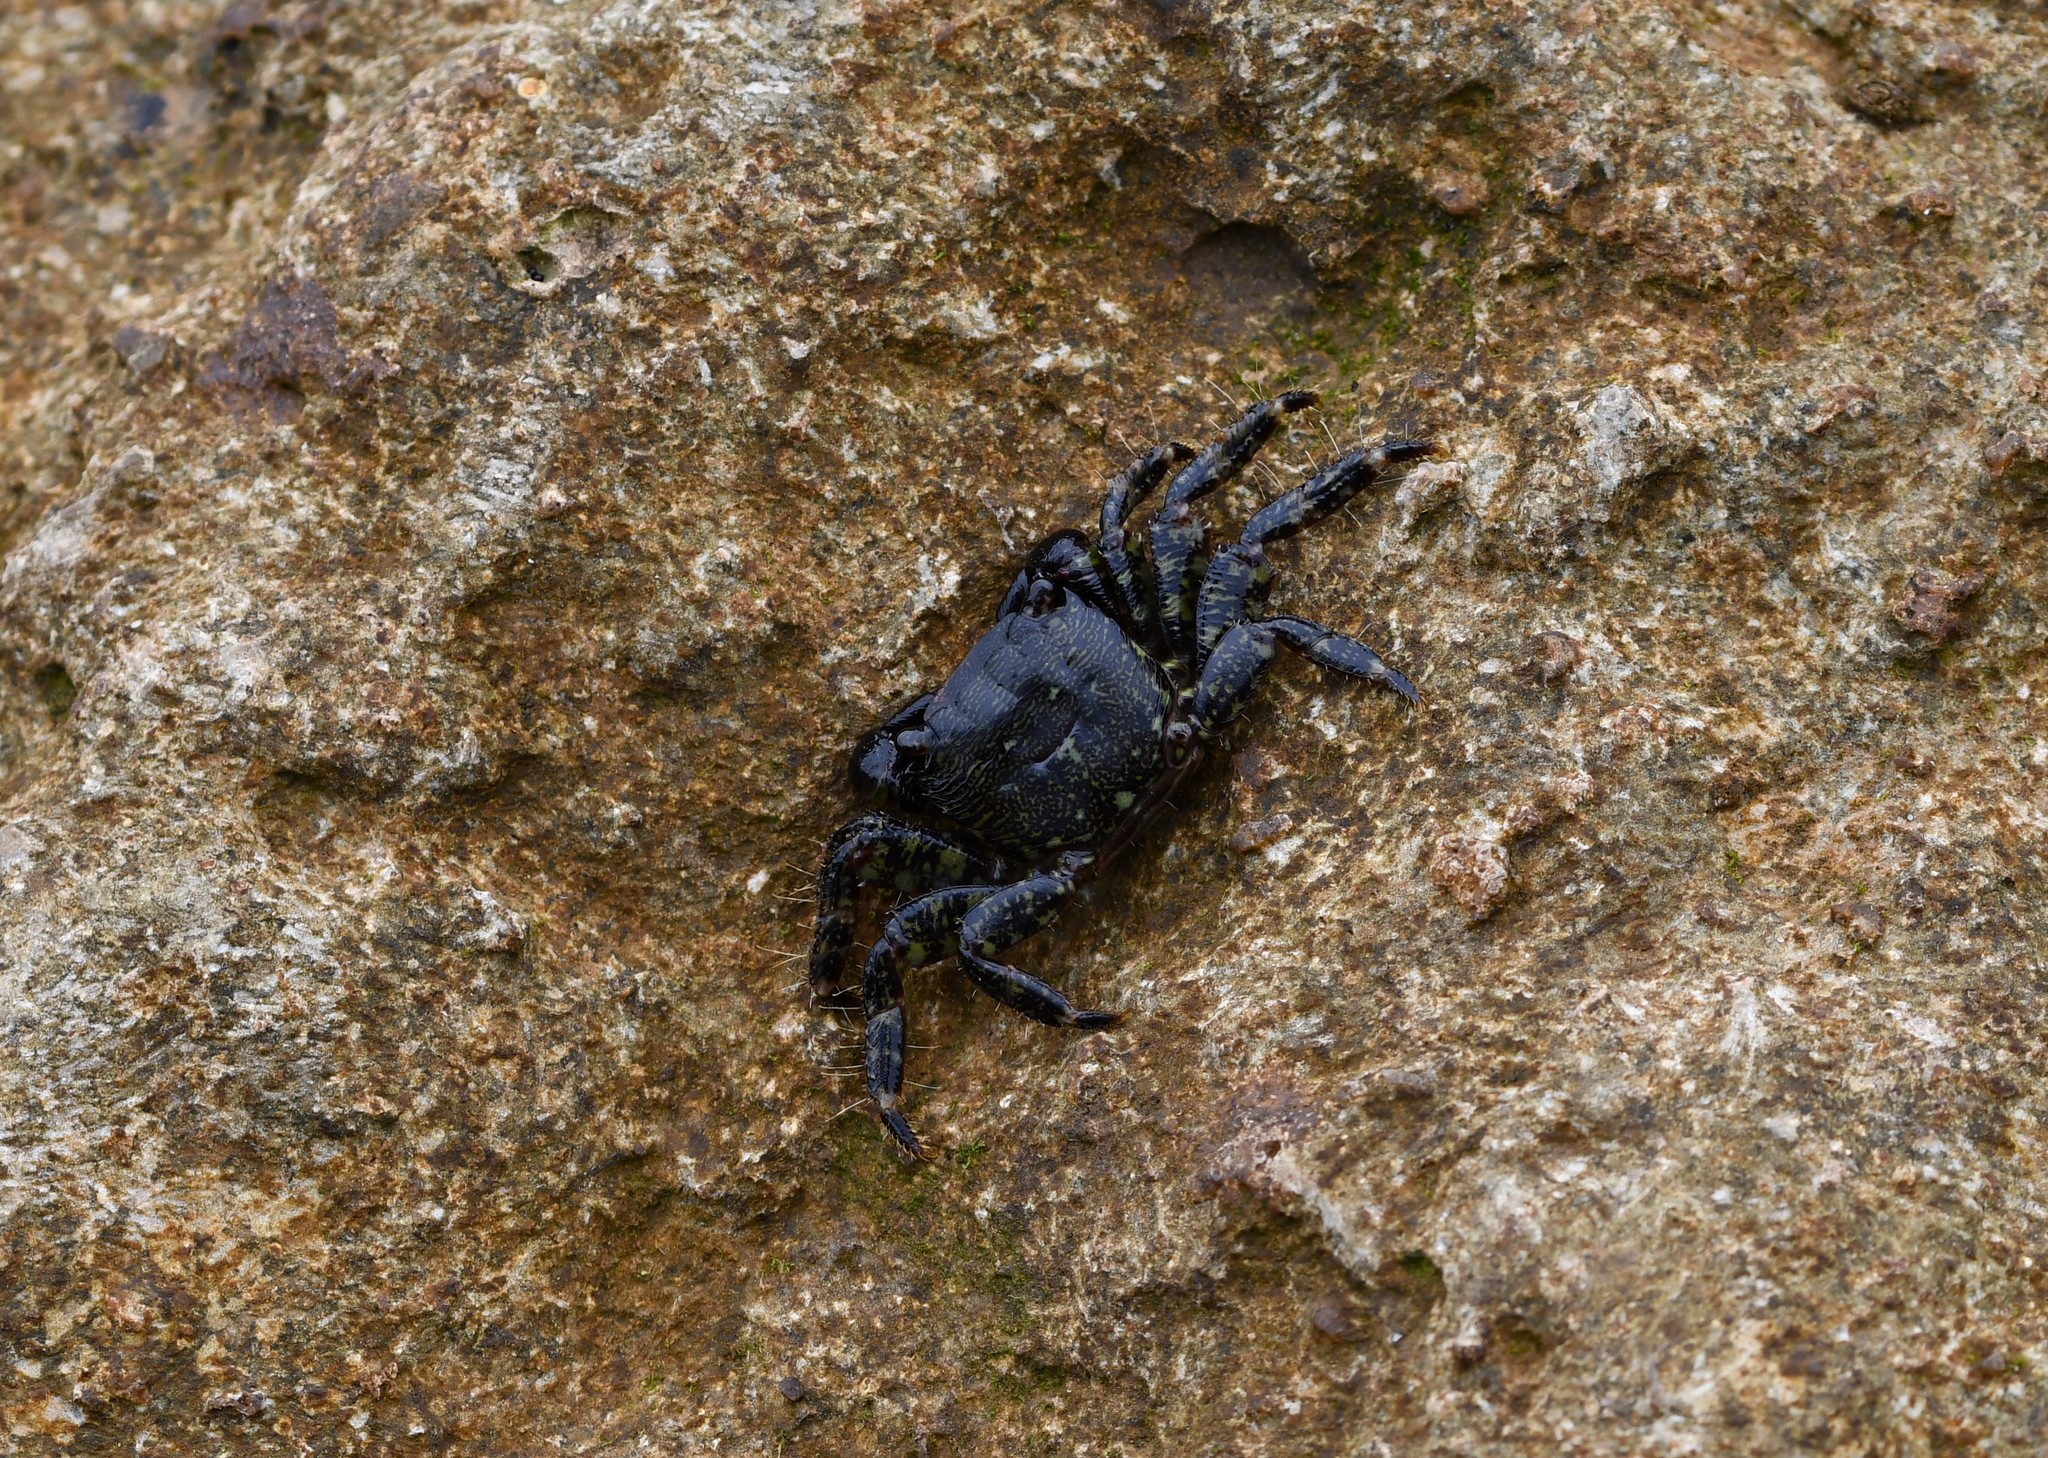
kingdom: Animalia
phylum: Arthropoda
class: Malacostraca
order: Decapoda
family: Grapsidae
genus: Pachygrapsus
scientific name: Pachygrapsus marmoratus
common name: Marbled rock crab
